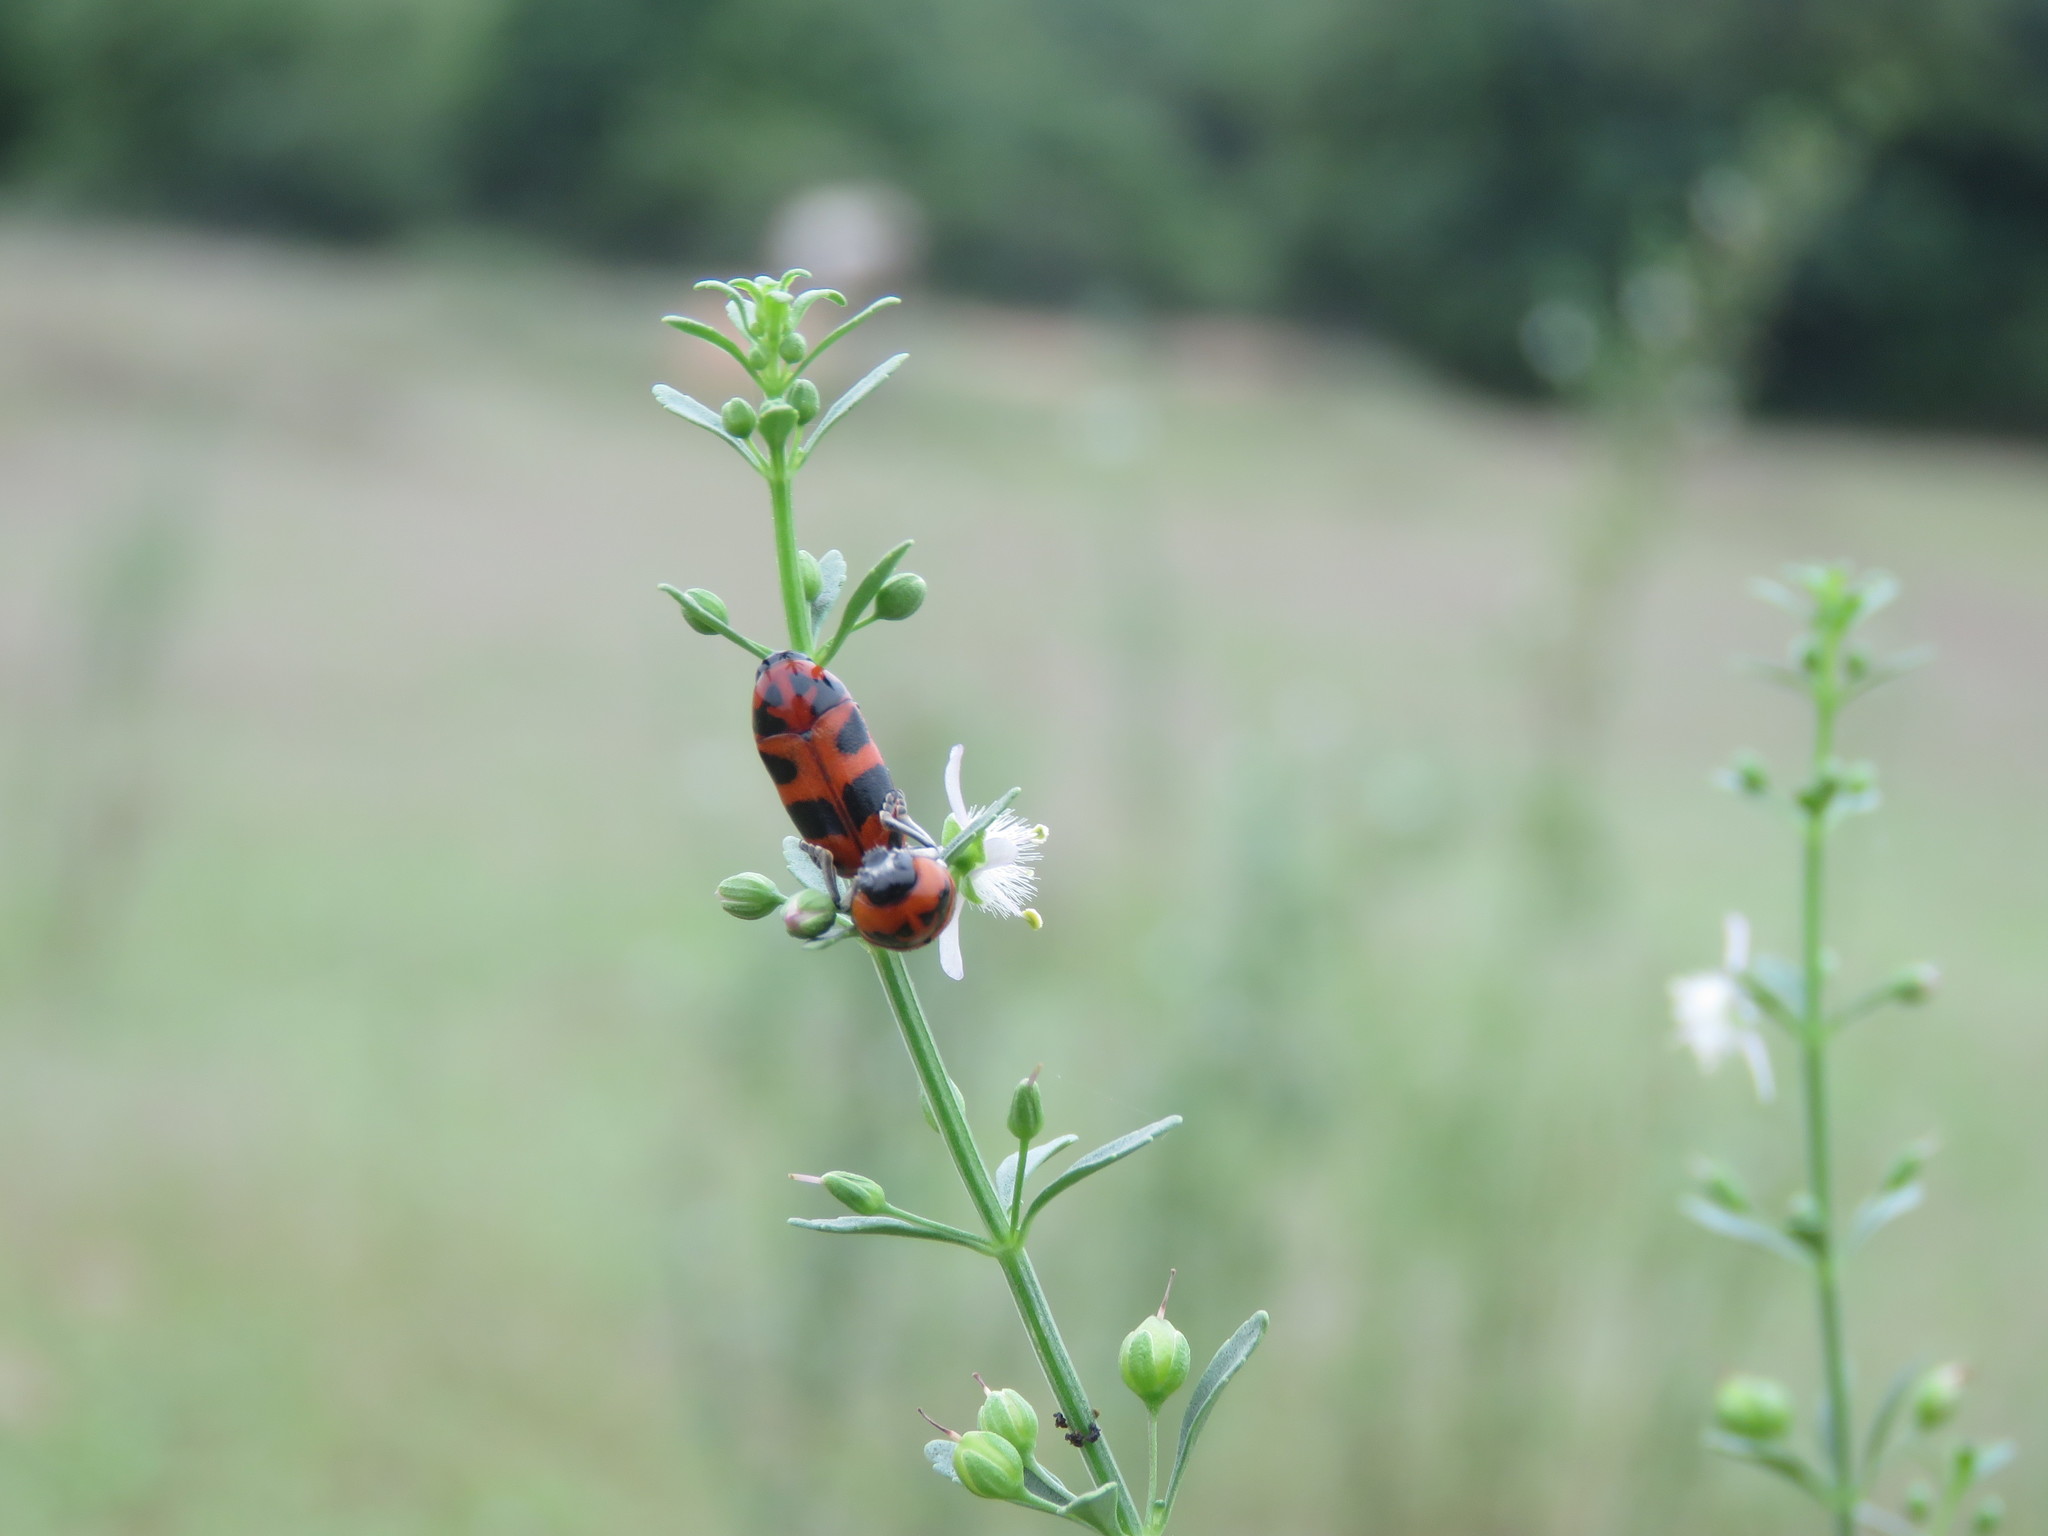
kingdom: Animalia
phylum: Arthropoda
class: Insecta
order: Coleoptera
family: Chrysomelidae
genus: Diapromorpha
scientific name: Diapromorpha
